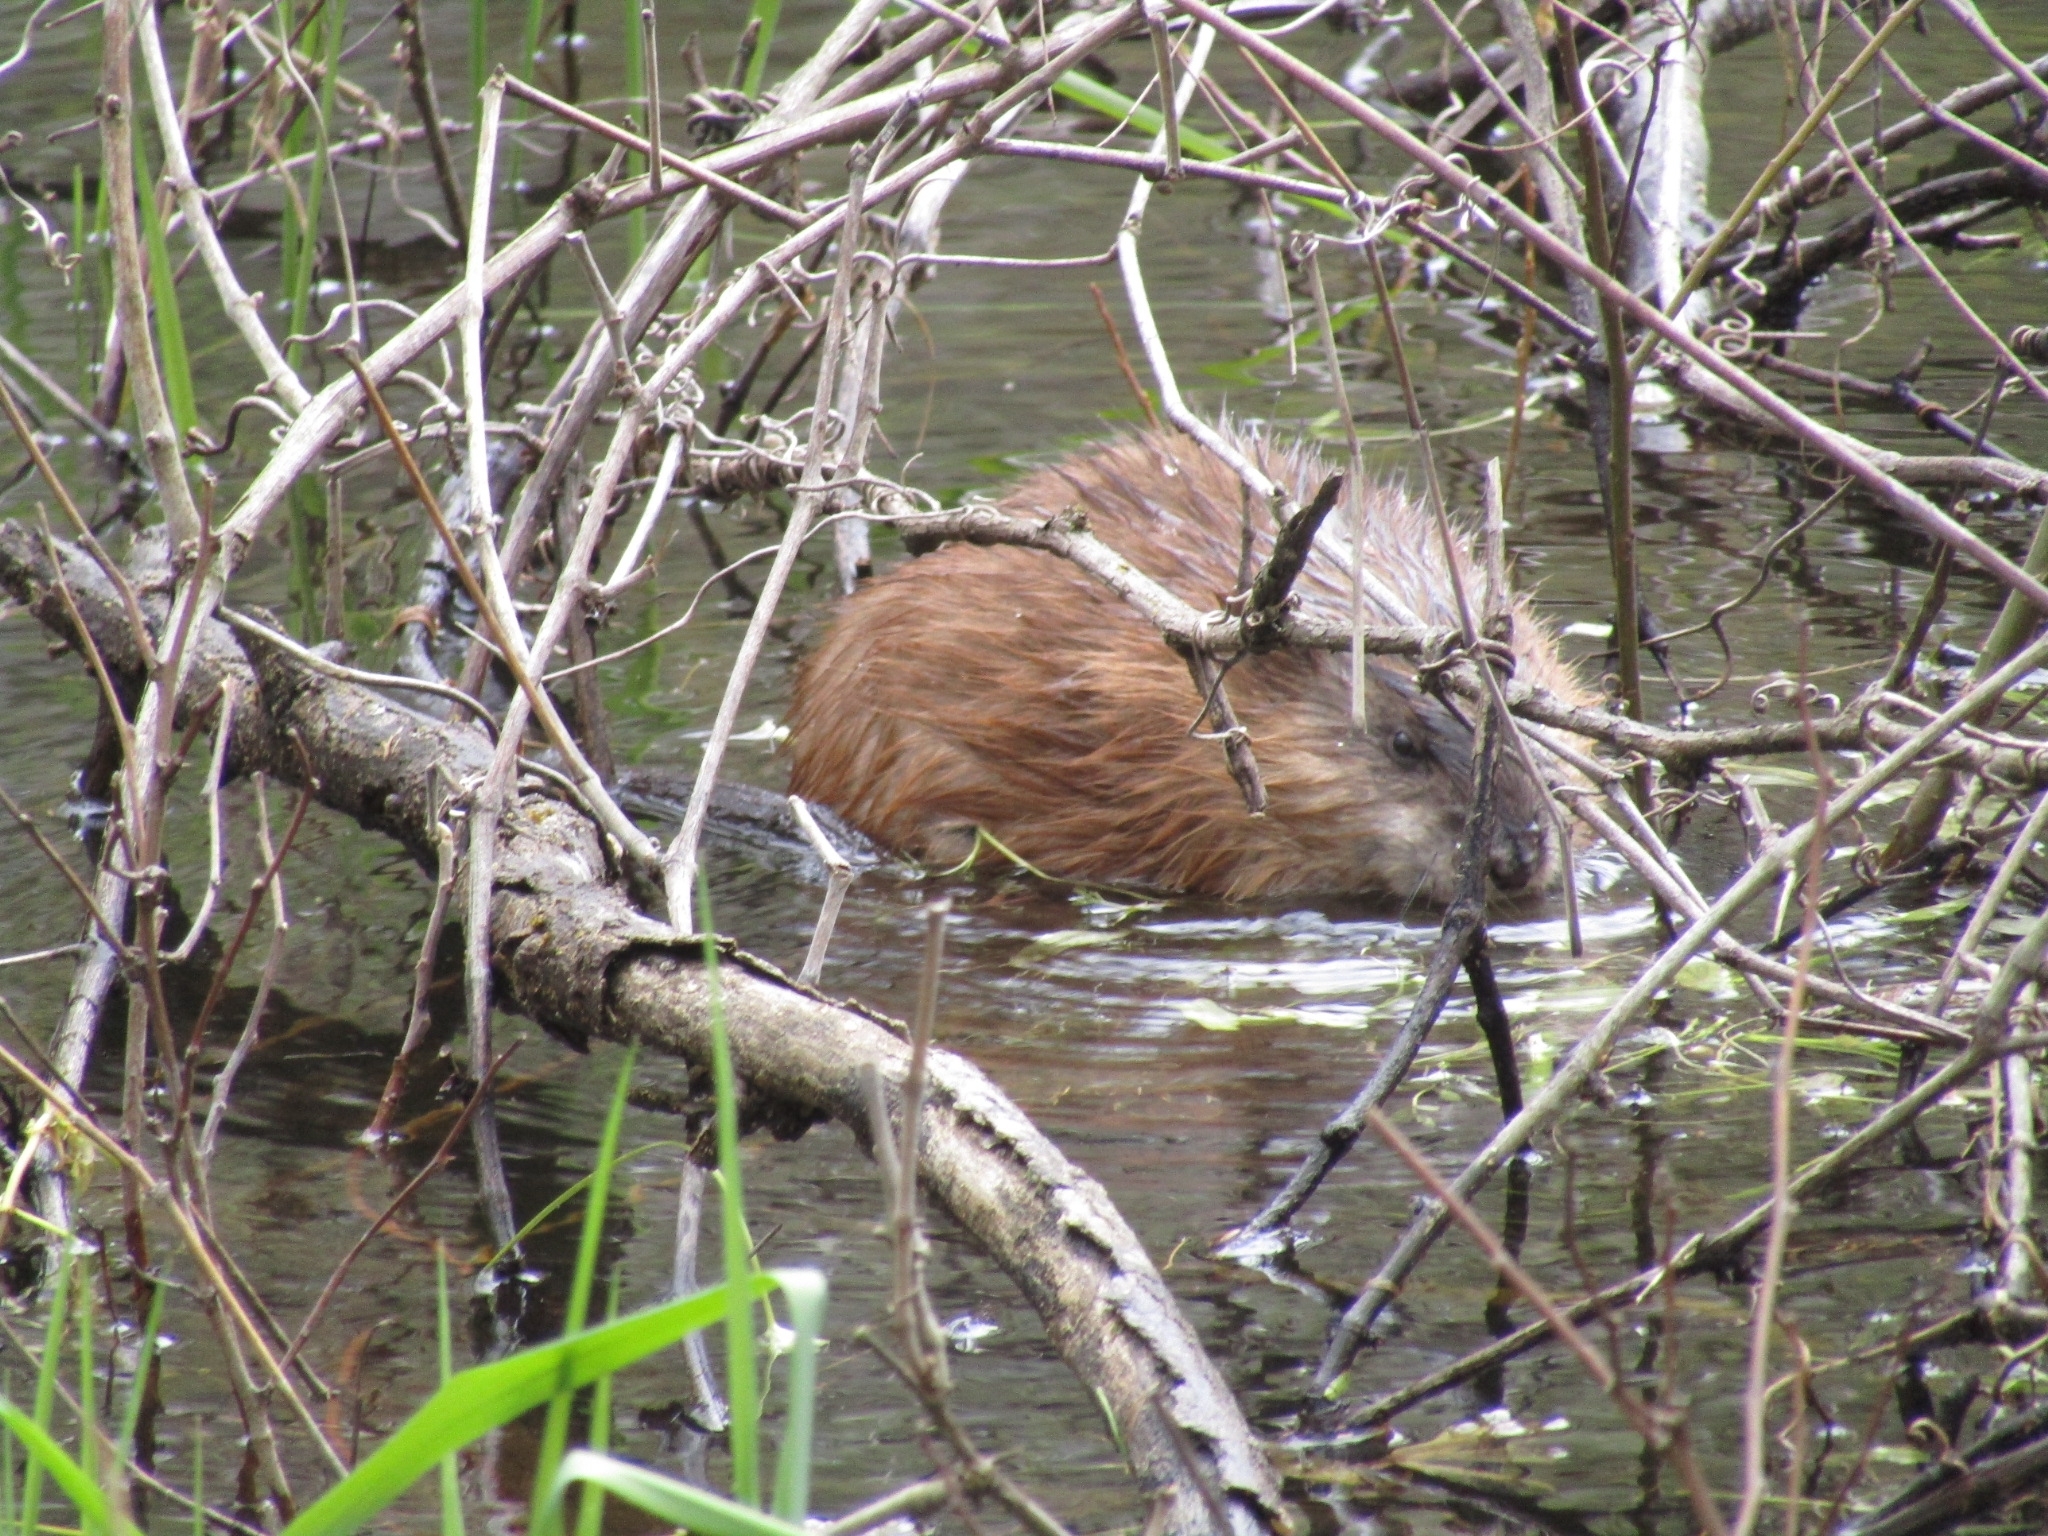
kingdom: Animalia
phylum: Chordata
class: Mammalia
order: Rodentia
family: Cricetidae
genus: Ondatra
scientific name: Ondatra zibethicus
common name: Muskrat
